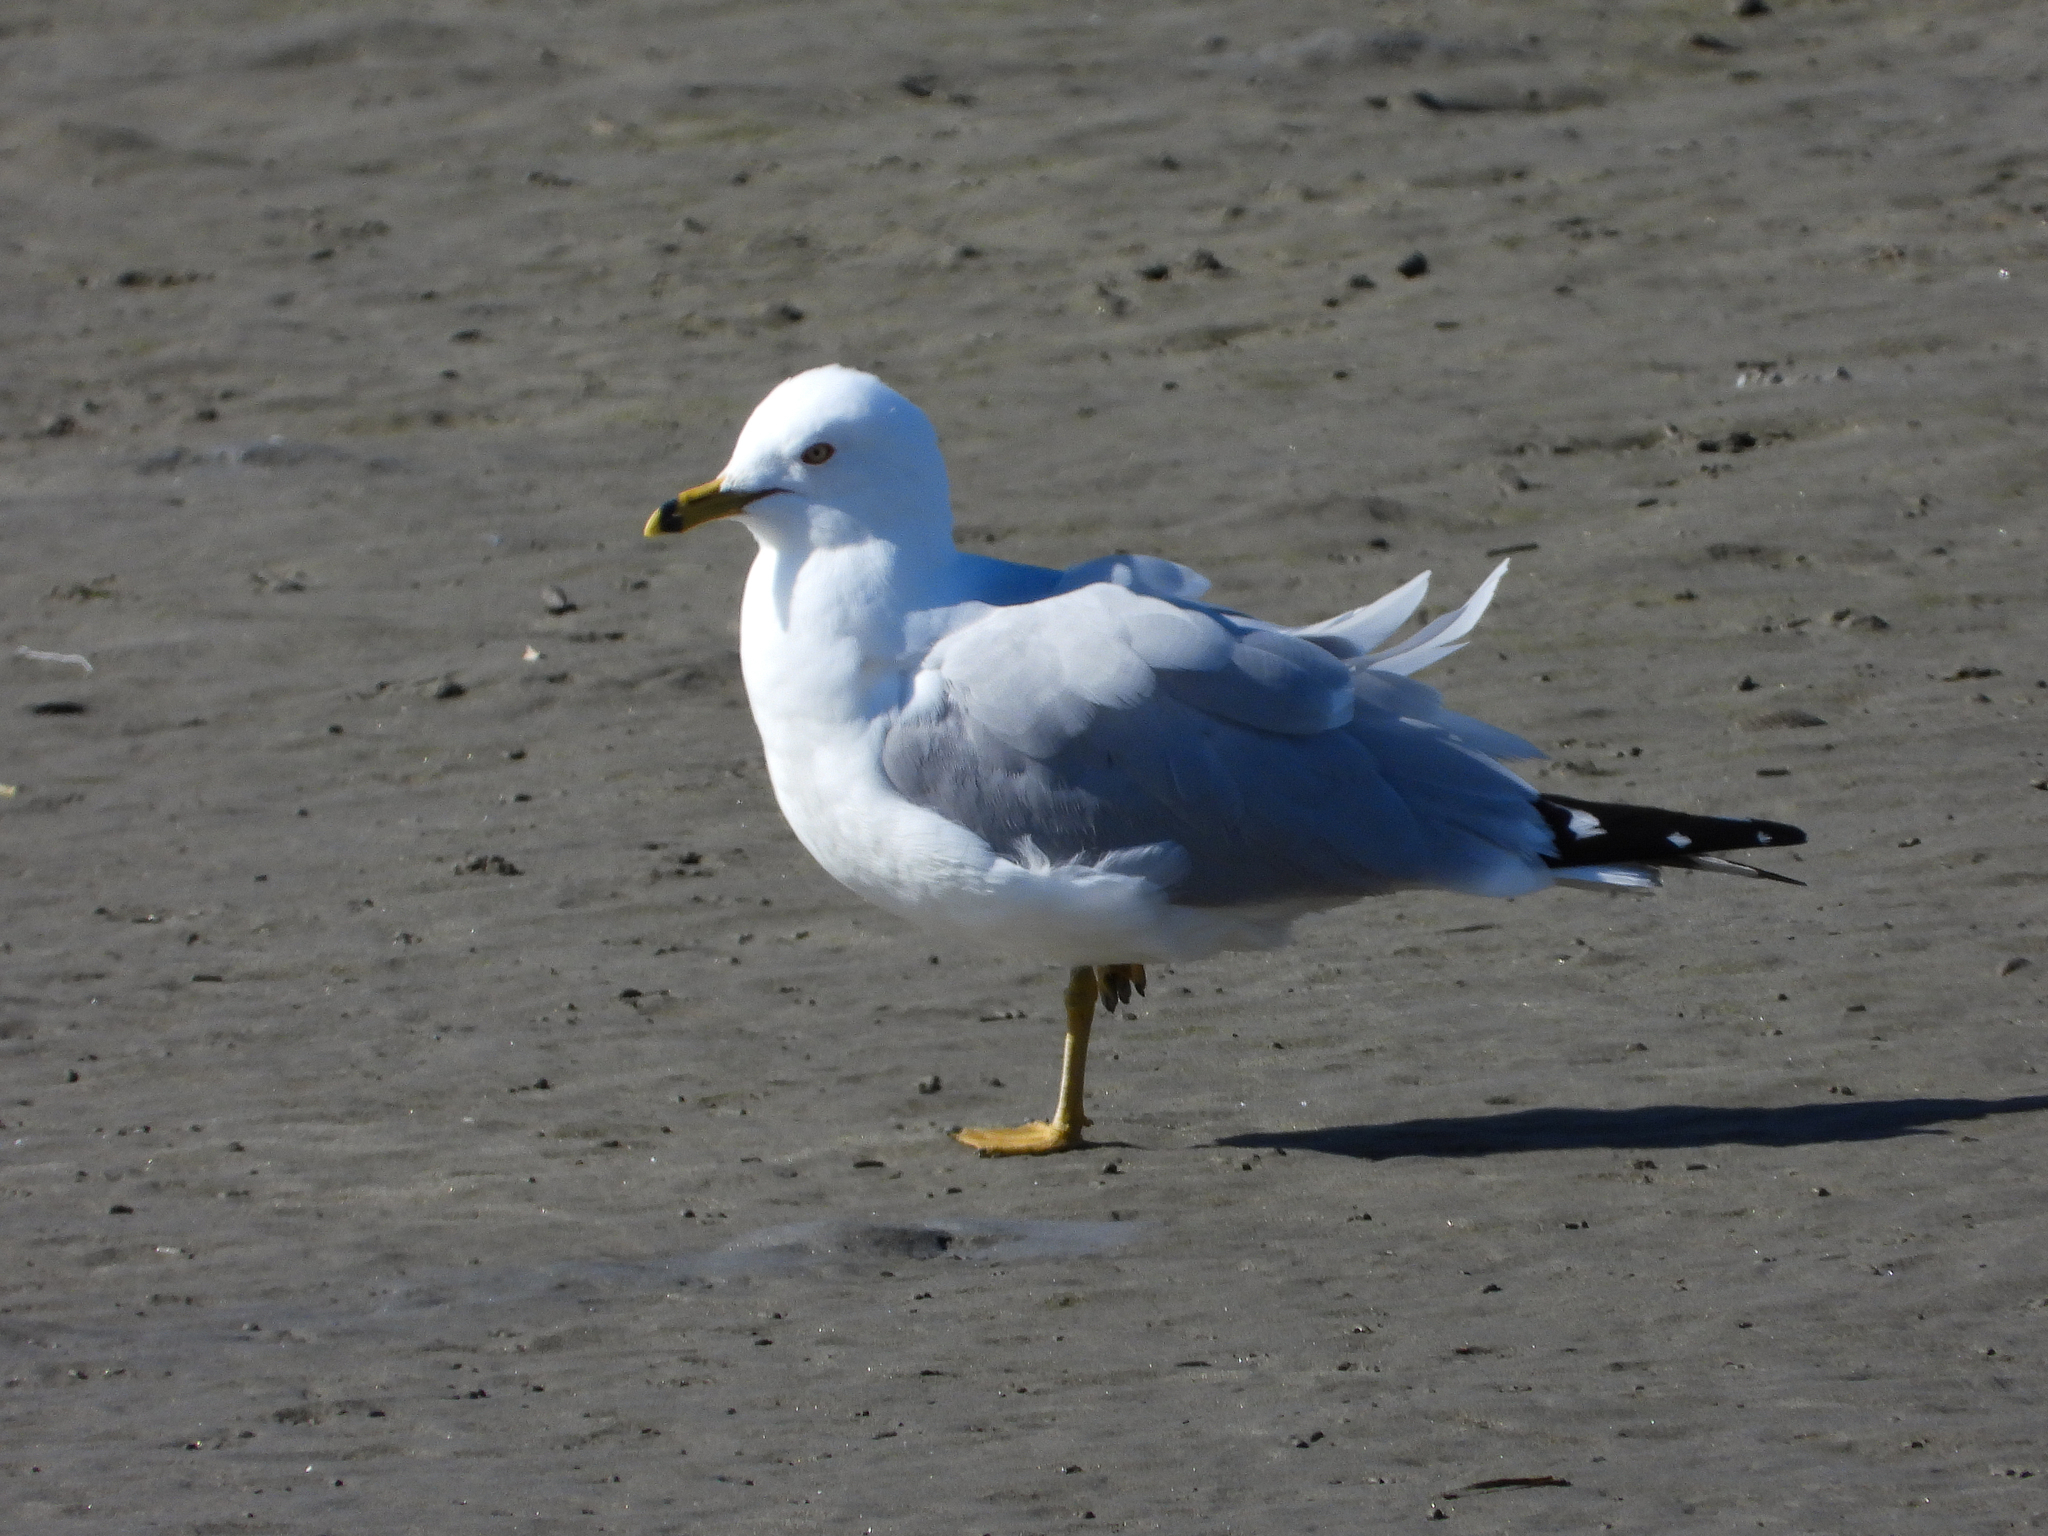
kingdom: Animalia
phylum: Chordata
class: Aves
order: Charadriiformes
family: Laridae
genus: Larus
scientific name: Larus delawarensis
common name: Ring-billed gull
